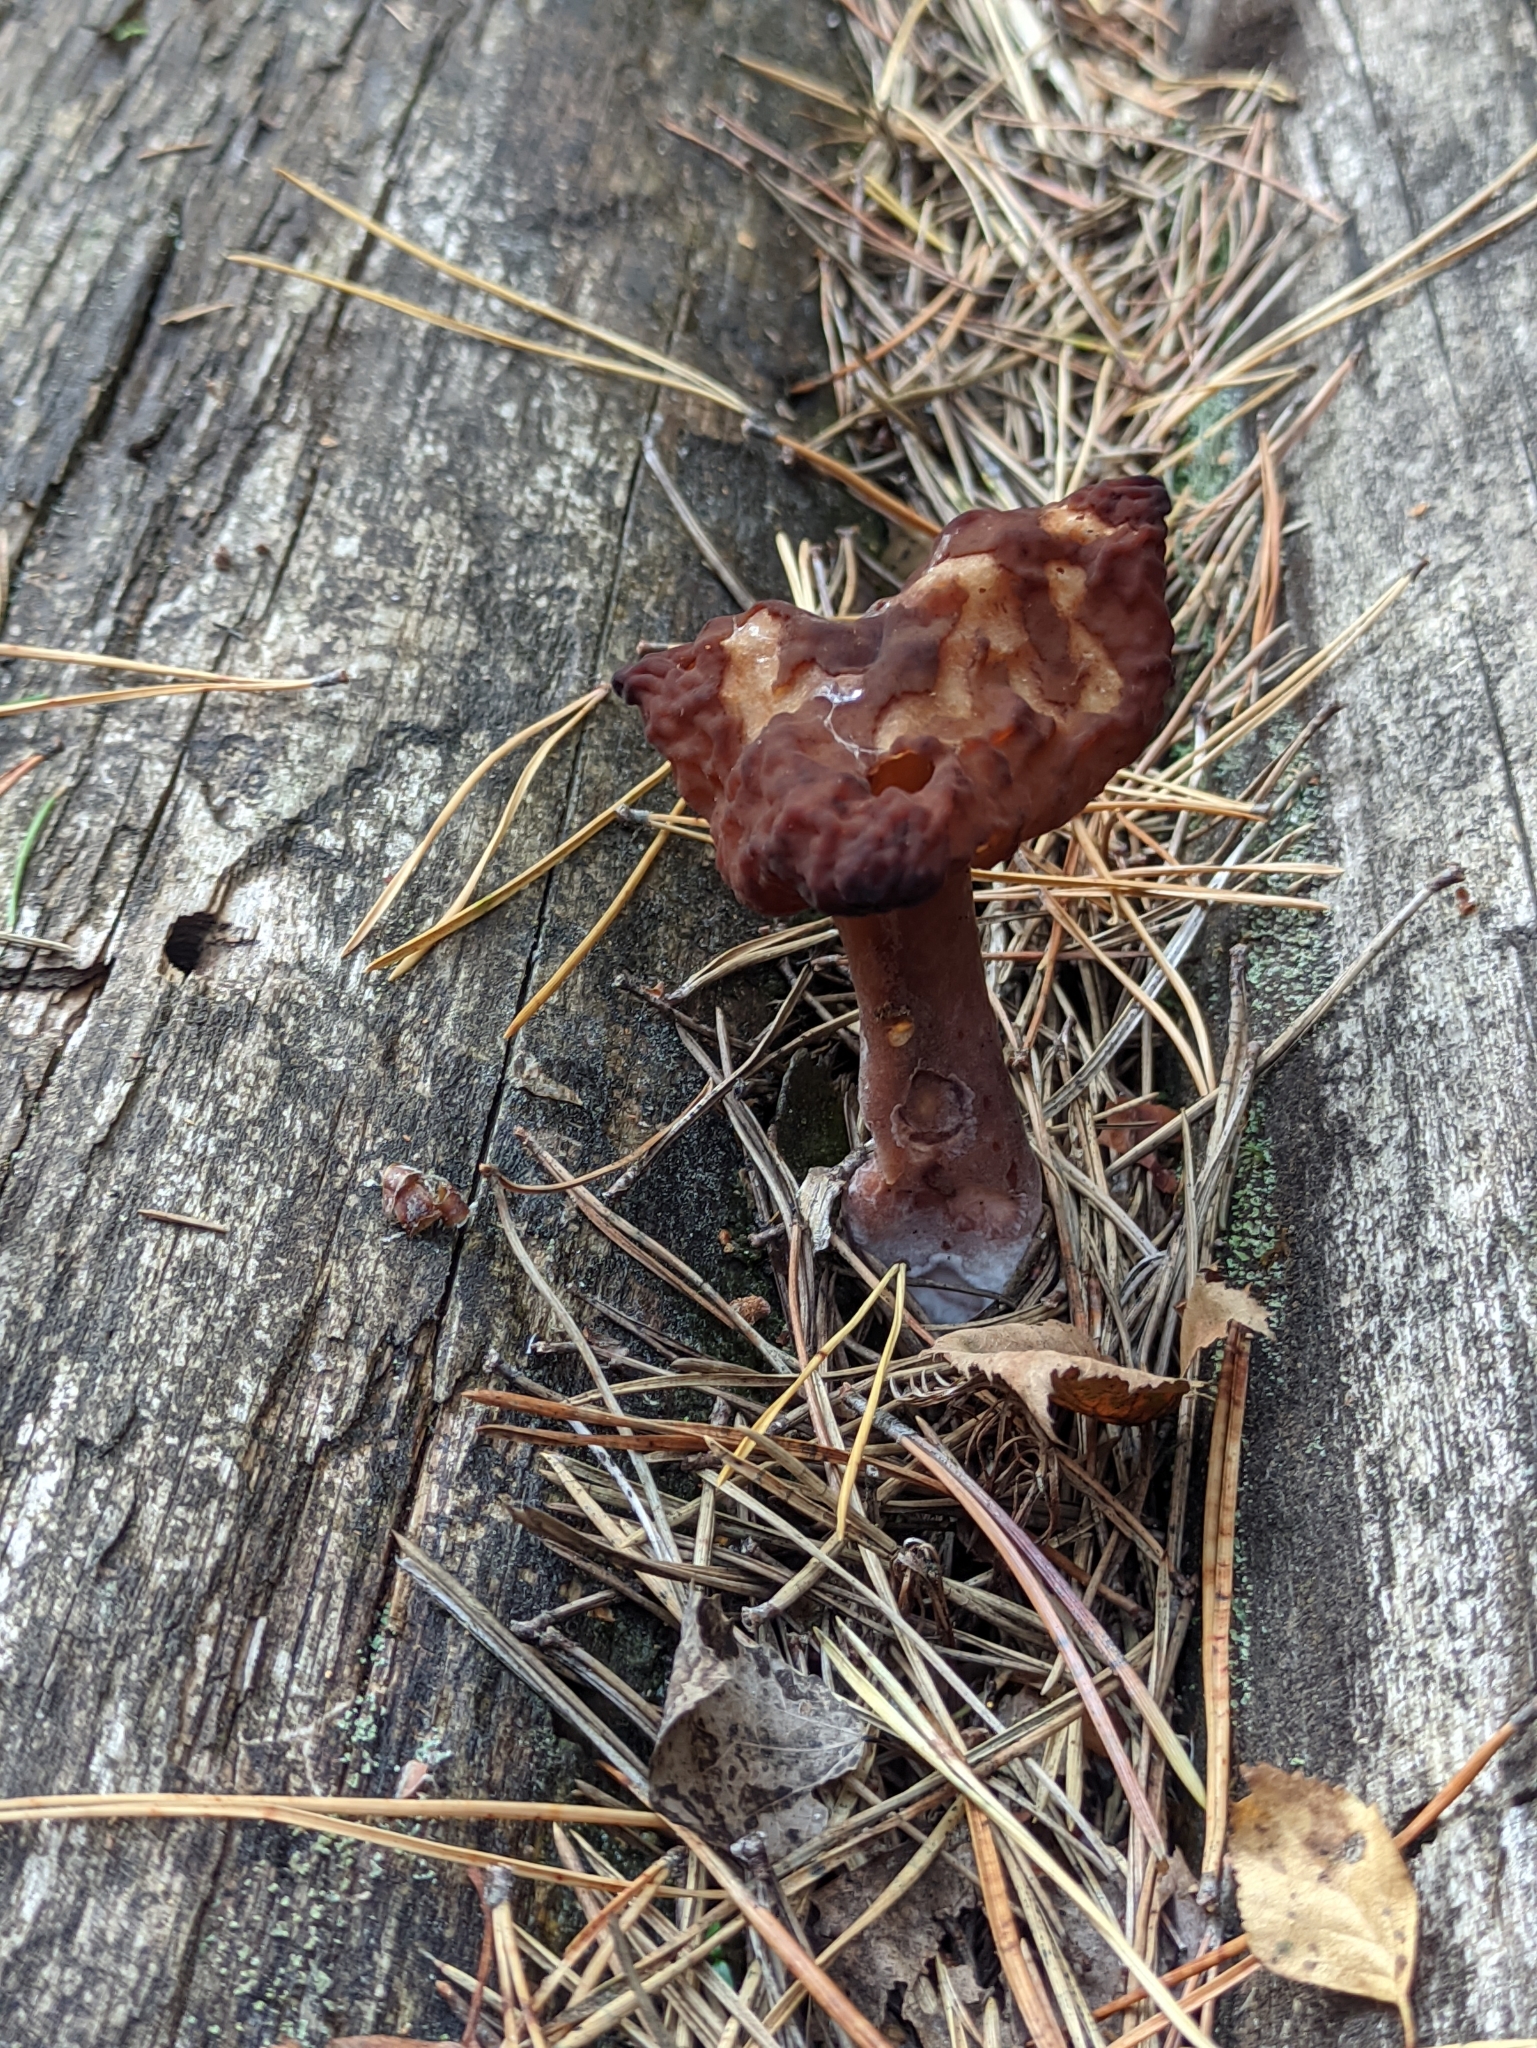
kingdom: Fungi
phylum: Ascomycota
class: Pezizomycetes
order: Pezizales
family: Discinaceae
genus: Gyromitra
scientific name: Gyromitra infula
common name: Pouched false morel
